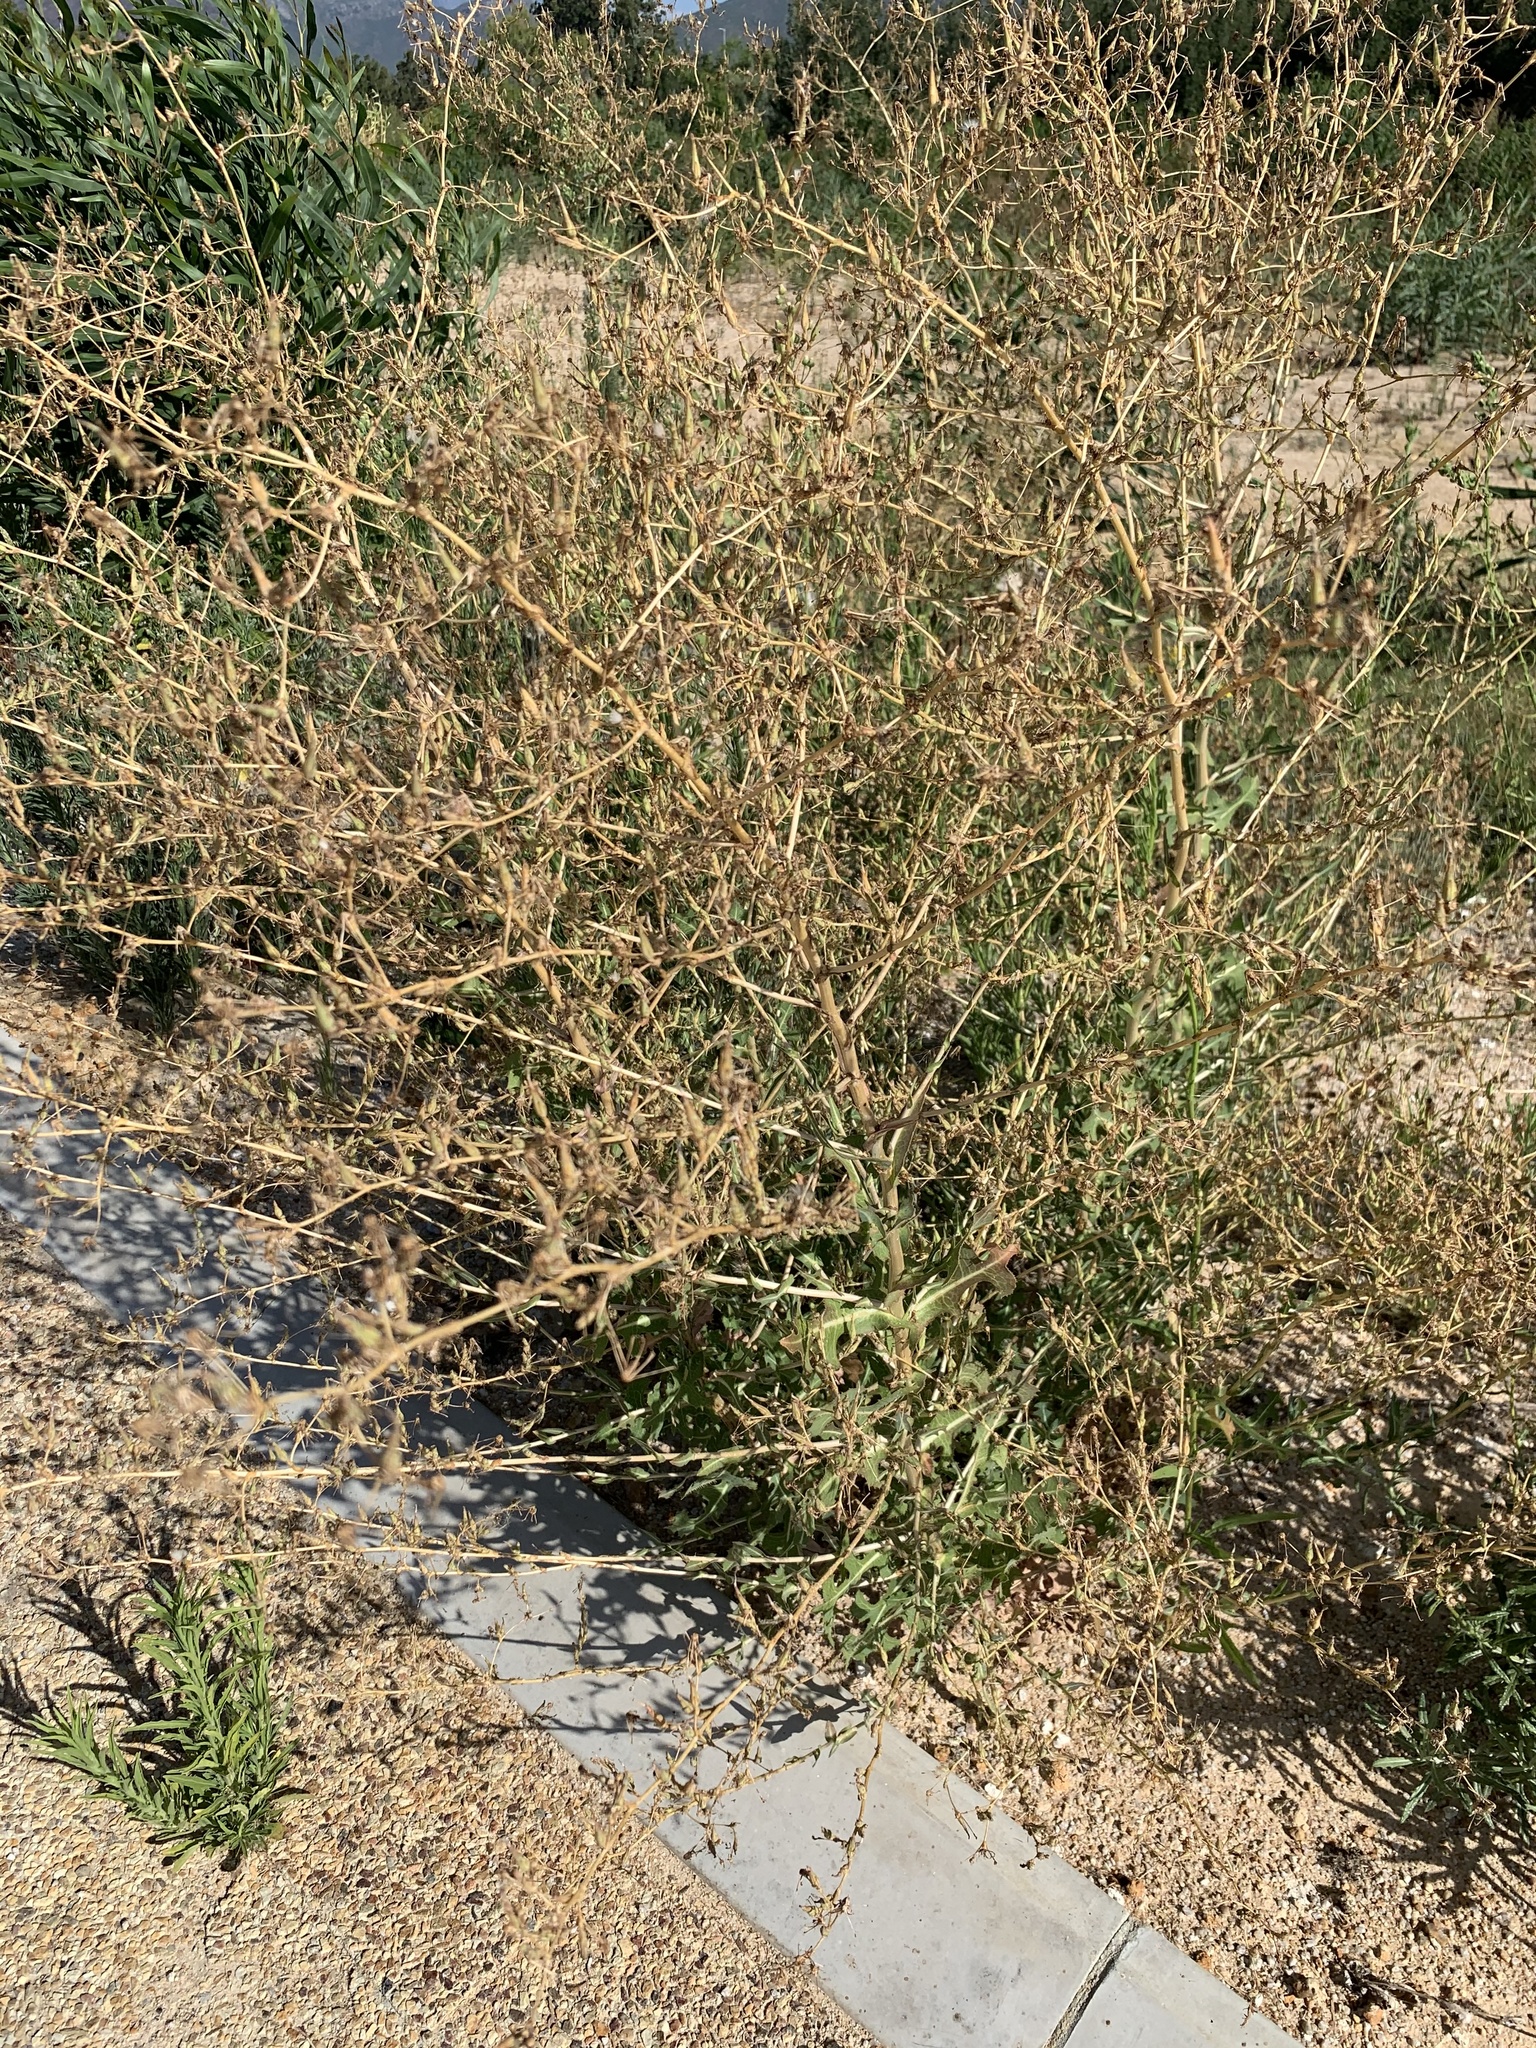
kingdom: Plantae
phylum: Tracheophyta
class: Magnoliopsida
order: Asterales
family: Asteraceae
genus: Lactuca
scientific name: Lactuca serriola
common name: Prickly lettuce
